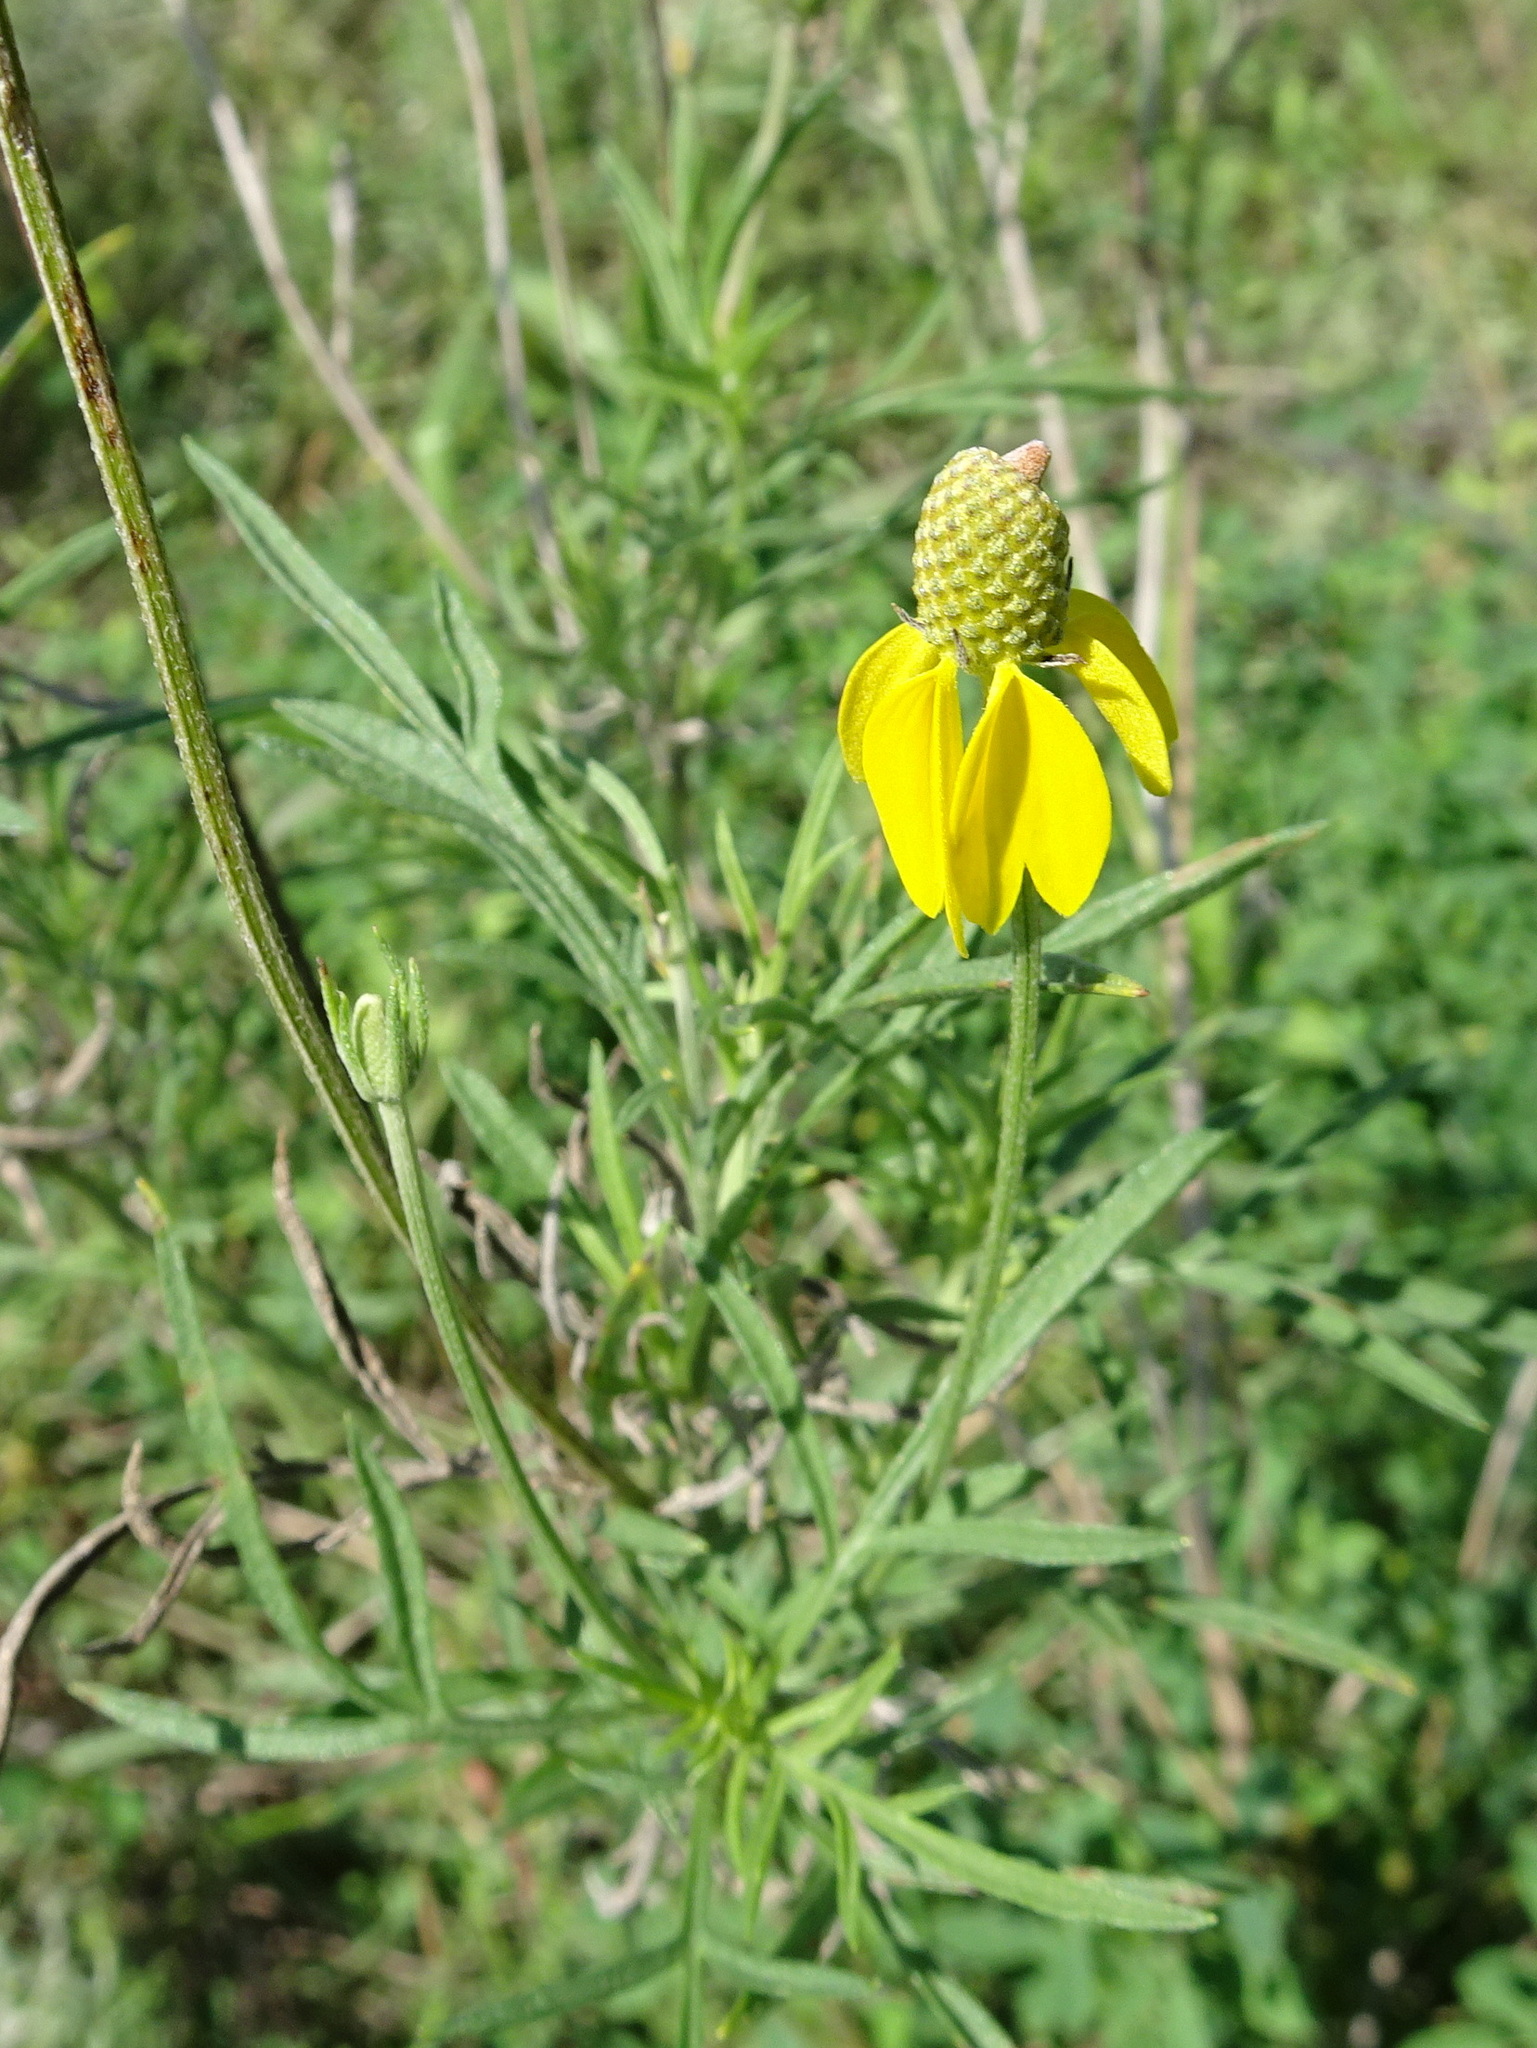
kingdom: Plantae
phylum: Tracheophyta
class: Magnoliopsida
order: Asterales
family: Asteraceae
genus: Ratibida
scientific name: Ratibida columnifera
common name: Prairie coneflower
